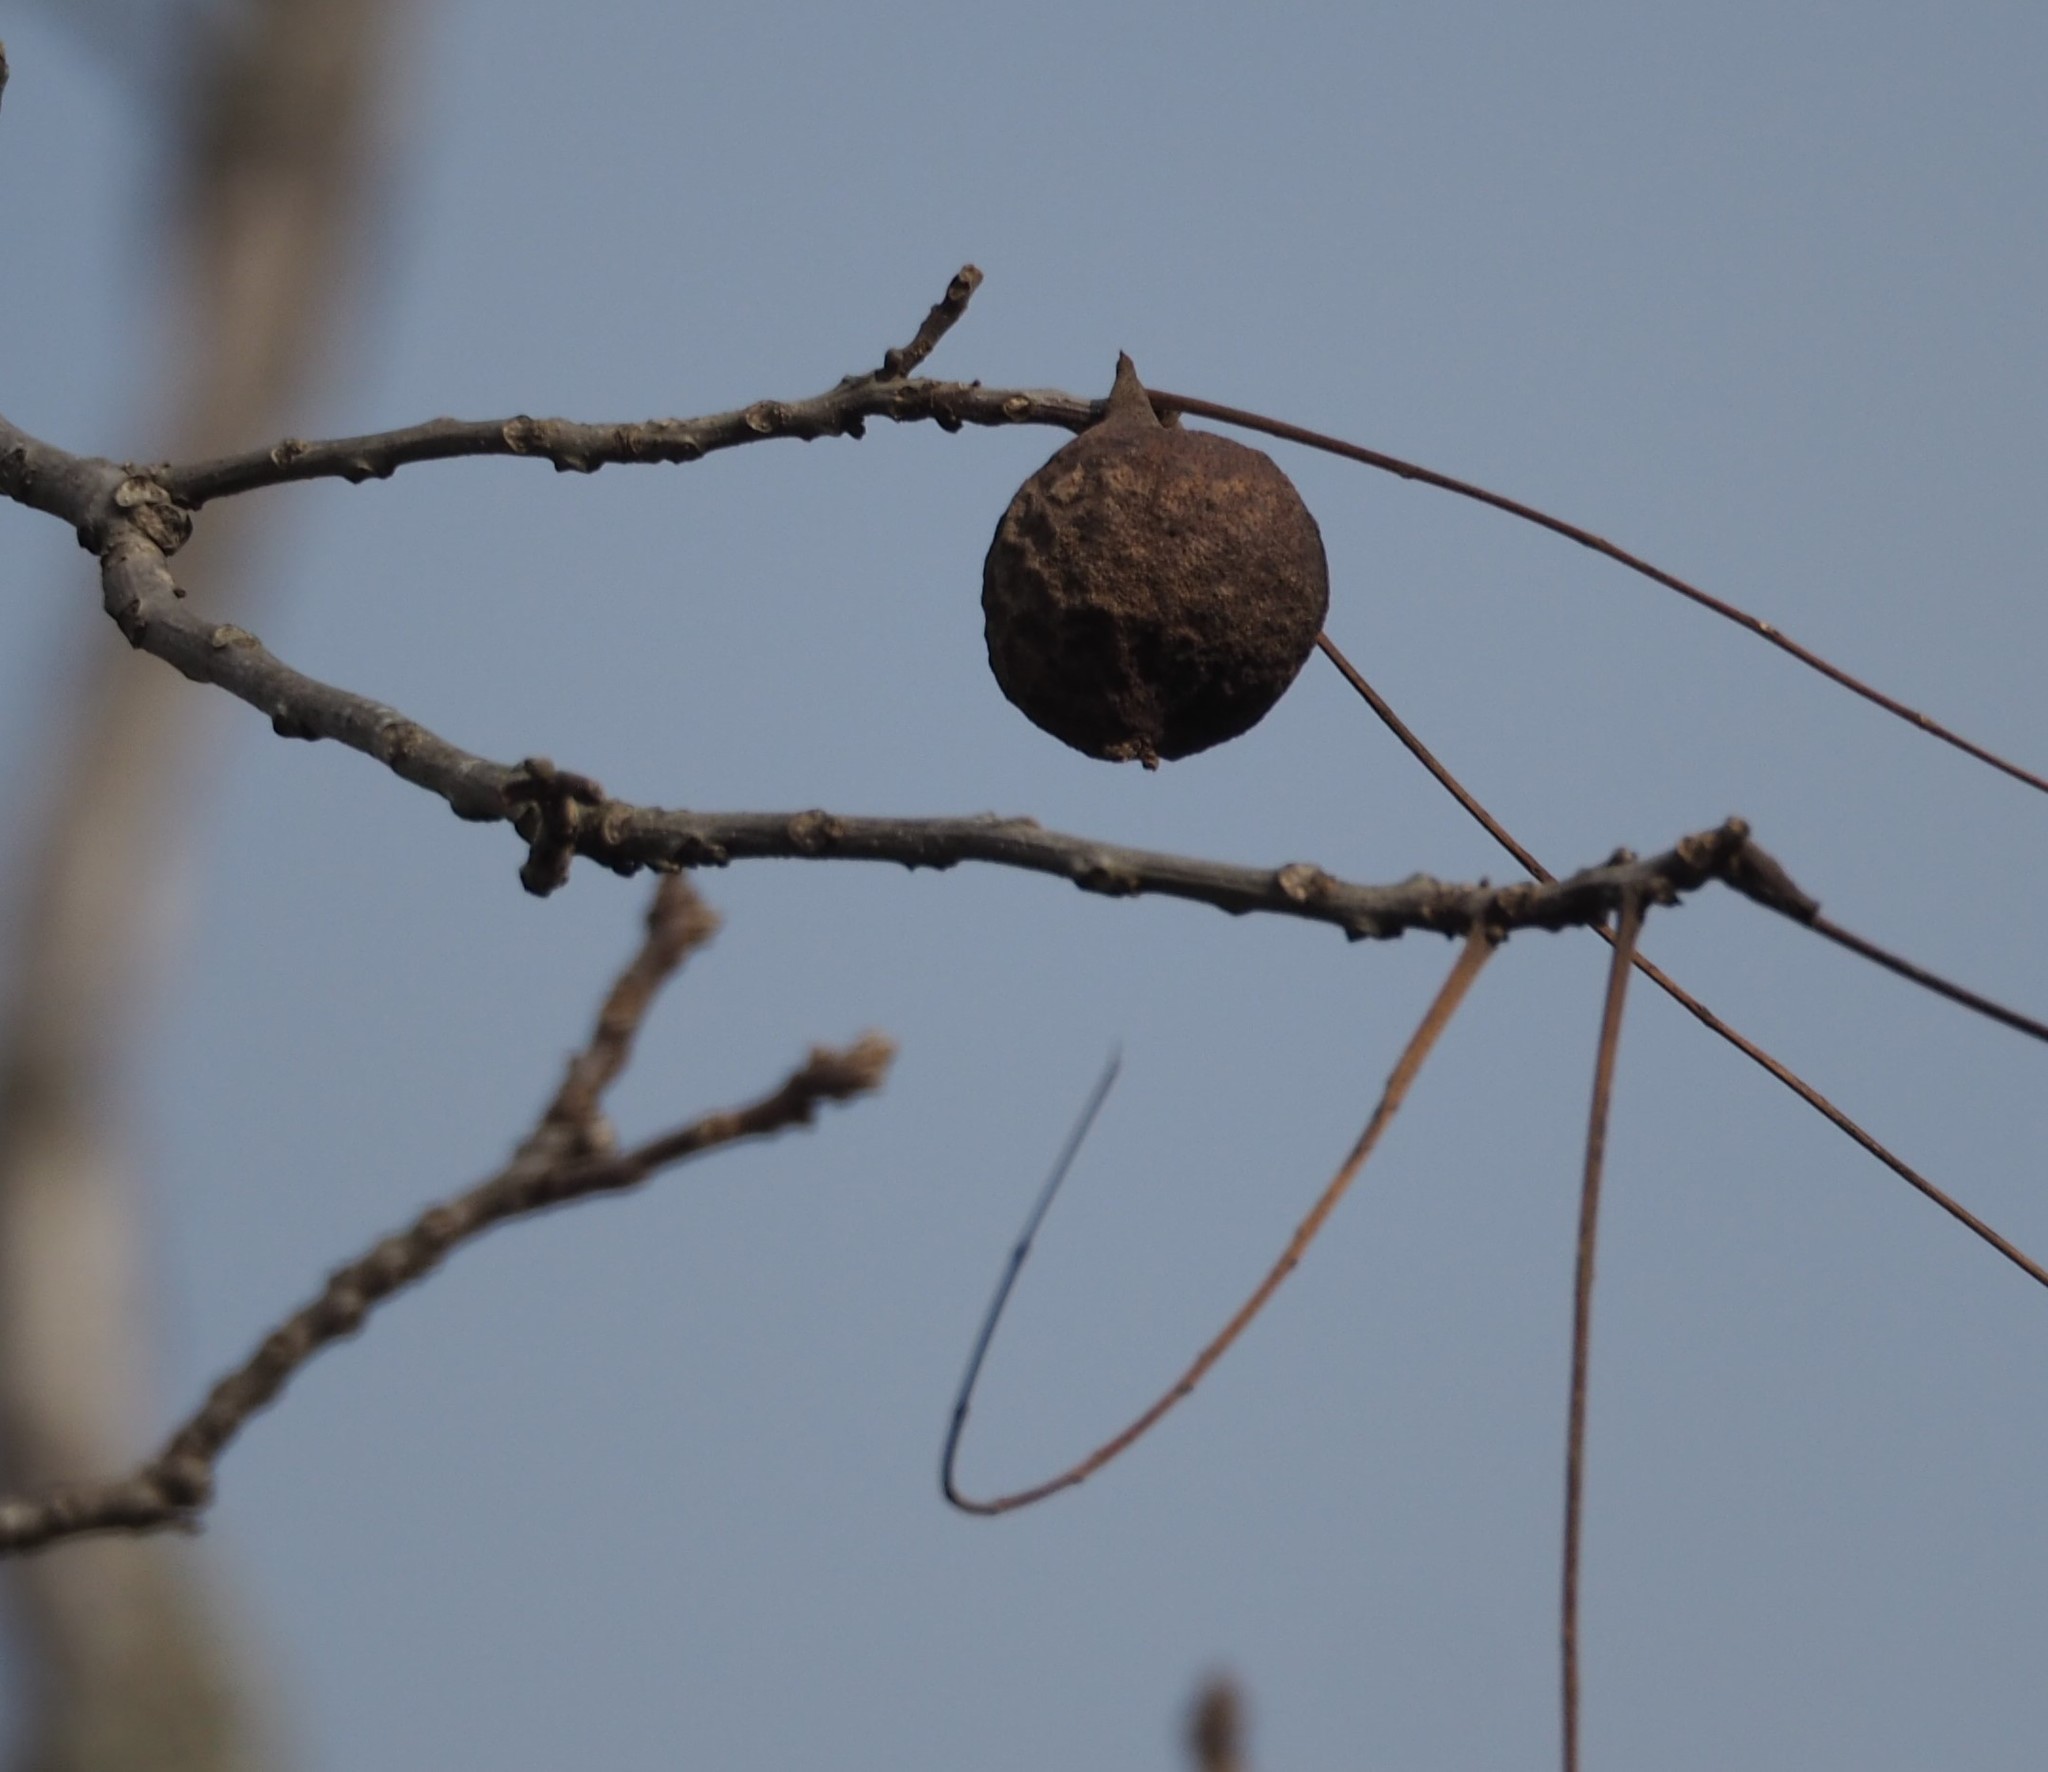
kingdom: Plantae
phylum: Tracheophyta
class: Magnoliopsida
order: Fagales
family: Juglandaceae
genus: Juglans
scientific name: Juglans nigra
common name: Black walnut
